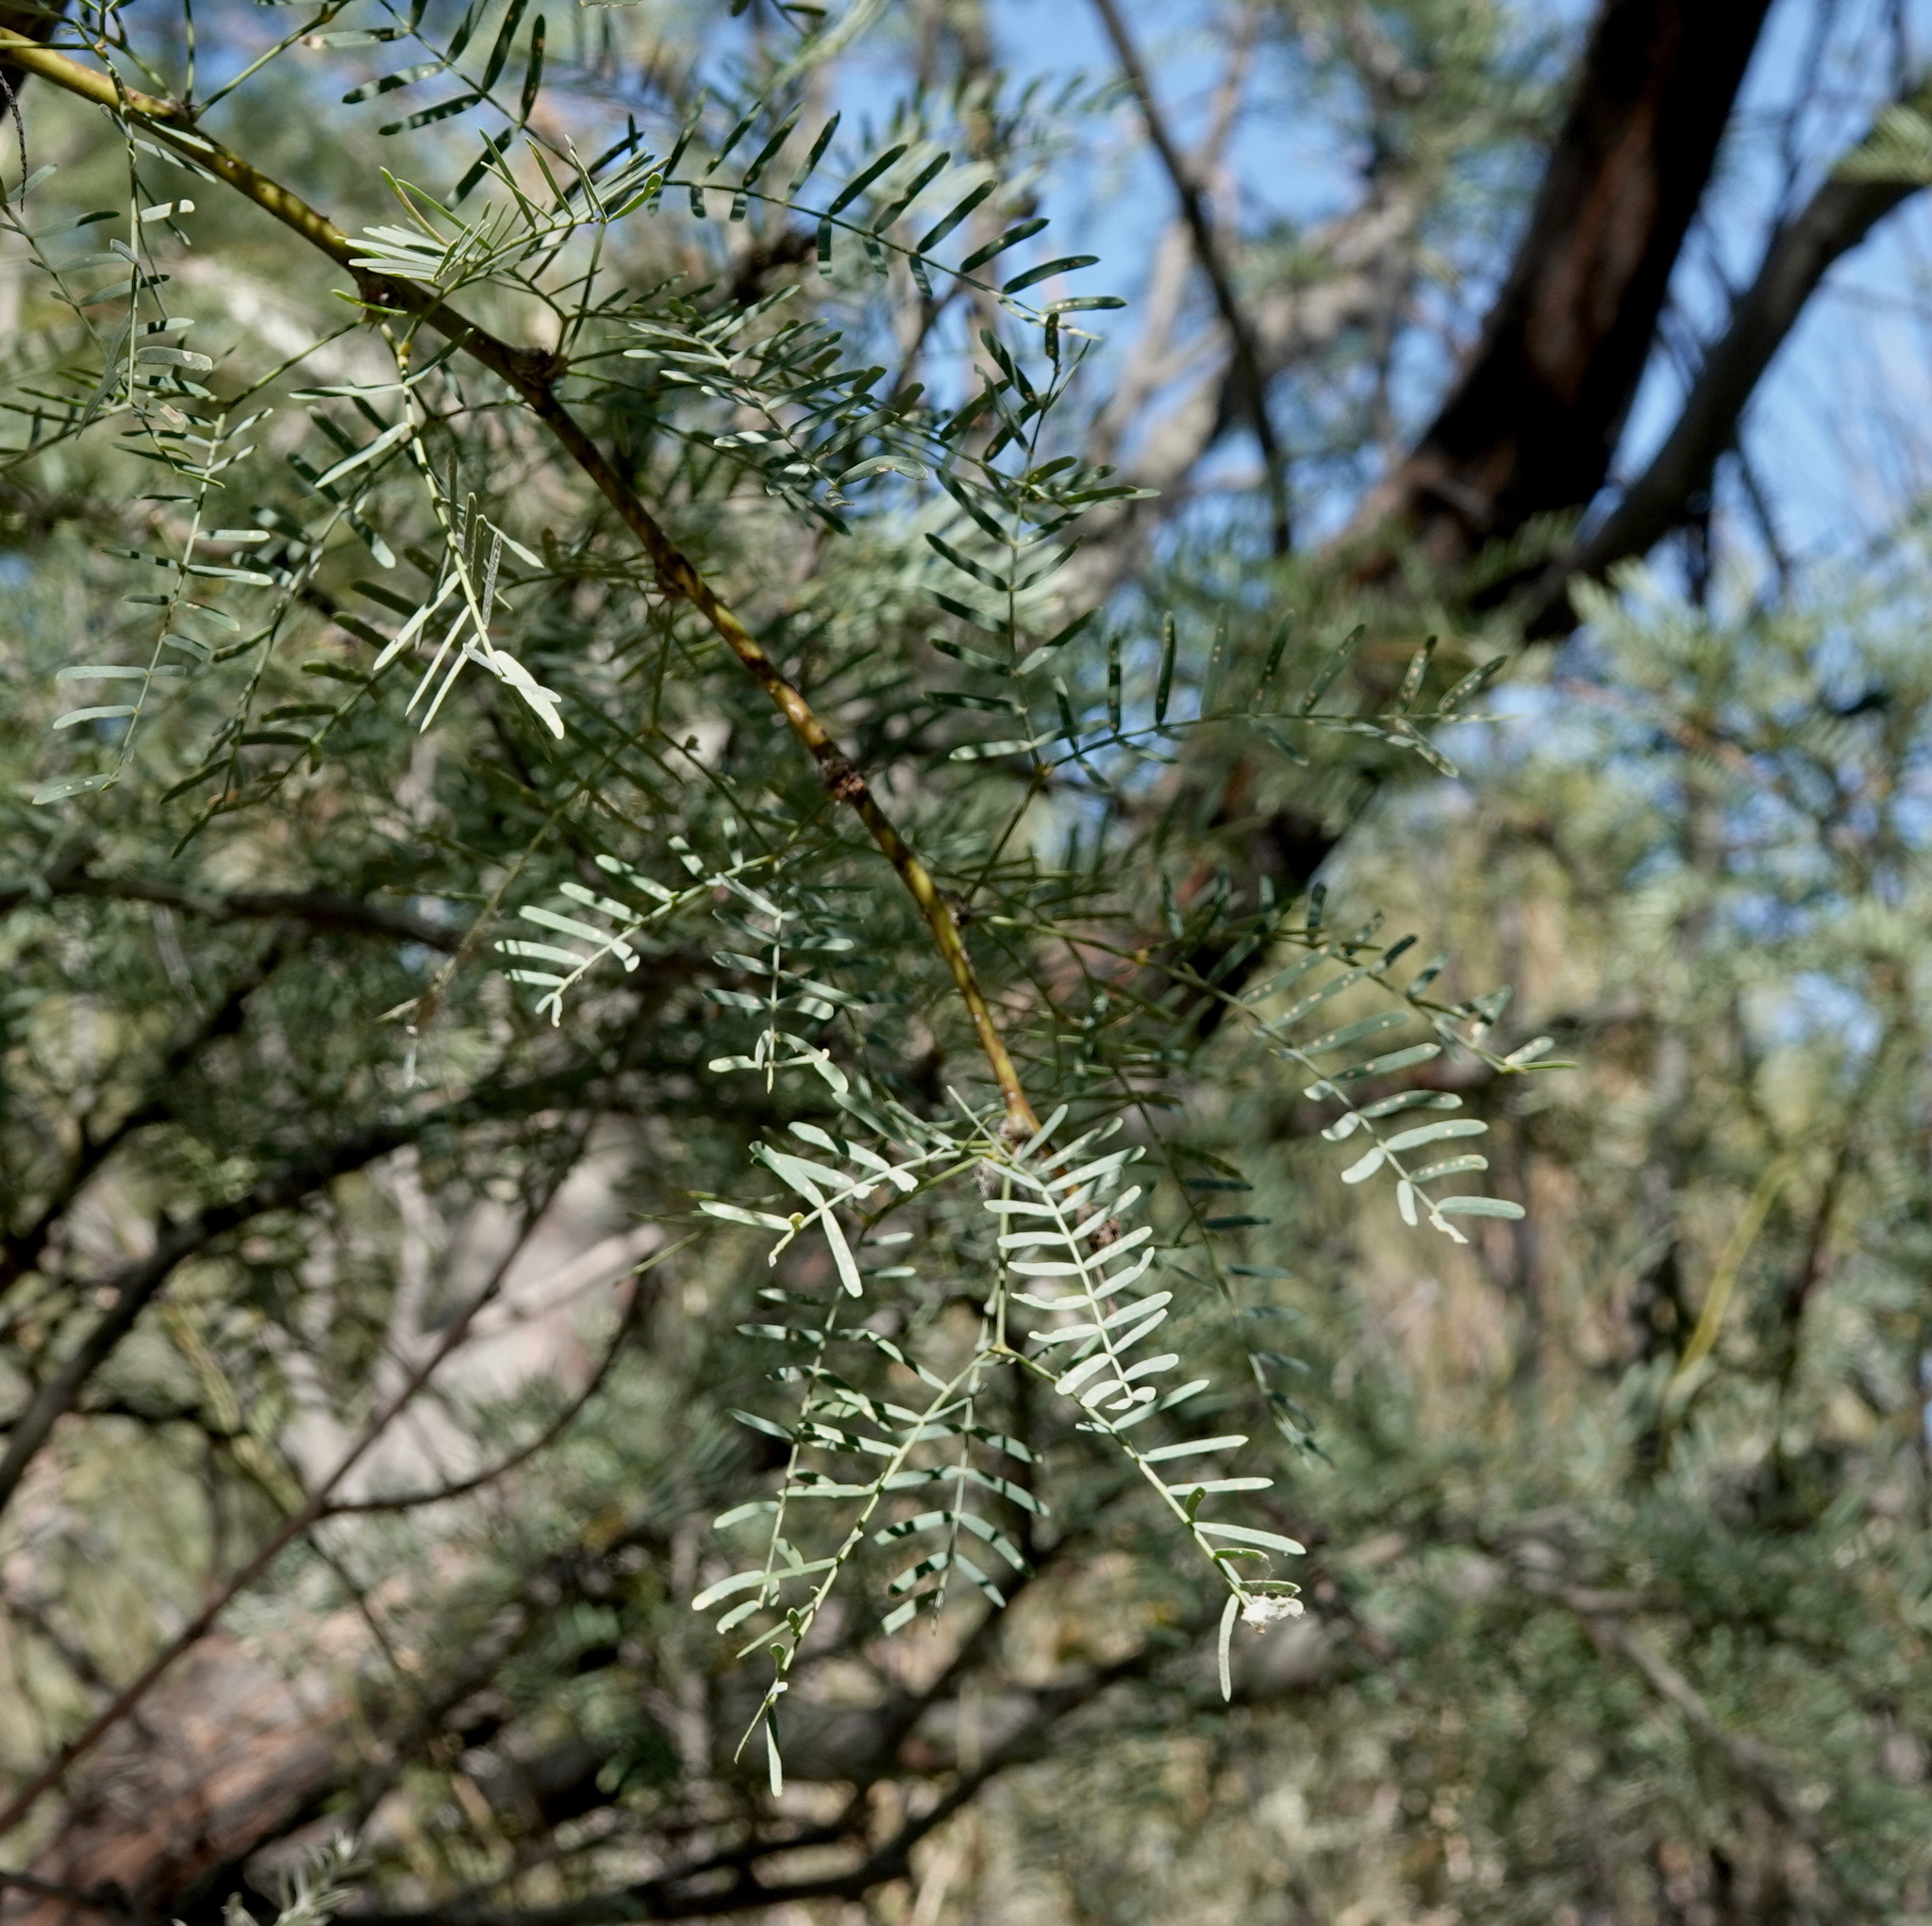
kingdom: Plantae
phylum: Tracheophyta
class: Magnoliopsida
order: Fabales
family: Fabaceae
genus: Prosopis
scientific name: Prosopis pubescens
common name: Screw-bean
